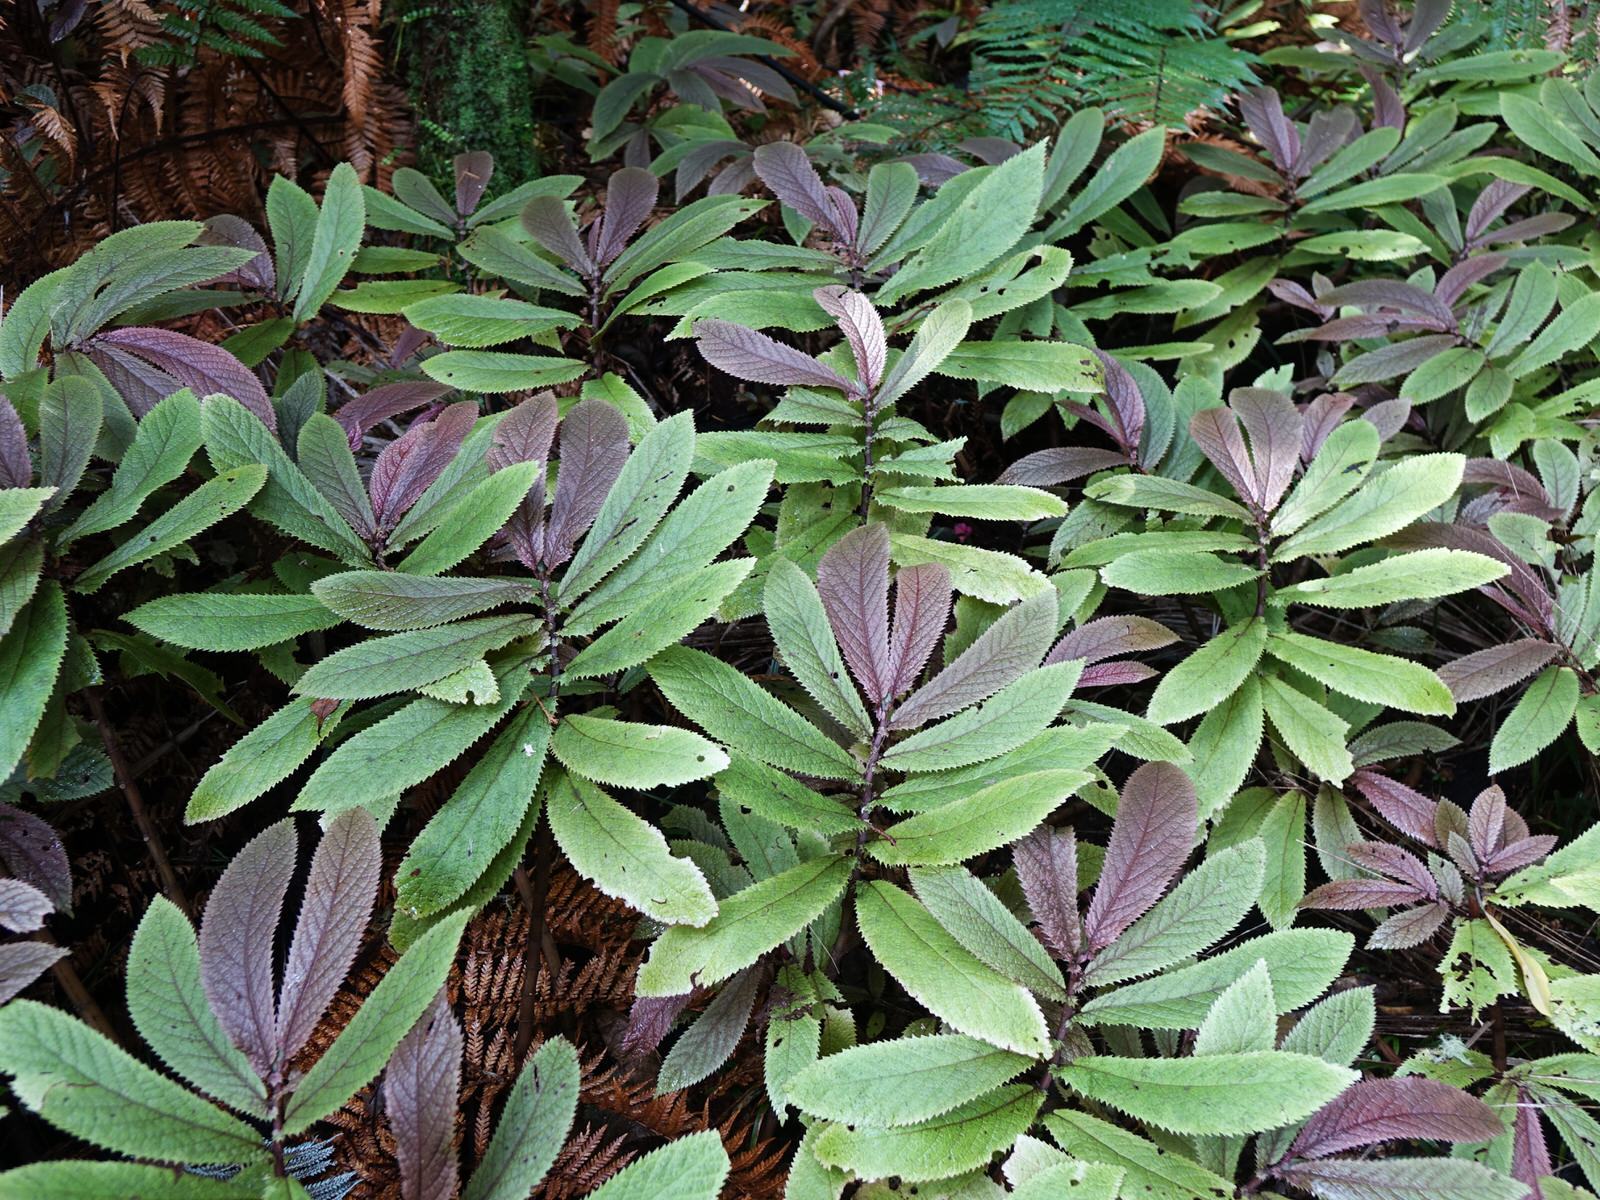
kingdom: Plantae
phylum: Tracheophyta
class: Magnoliopsida
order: Rosales
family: Urticaceae
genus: Elatostema
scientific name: Elatostema rugosum
